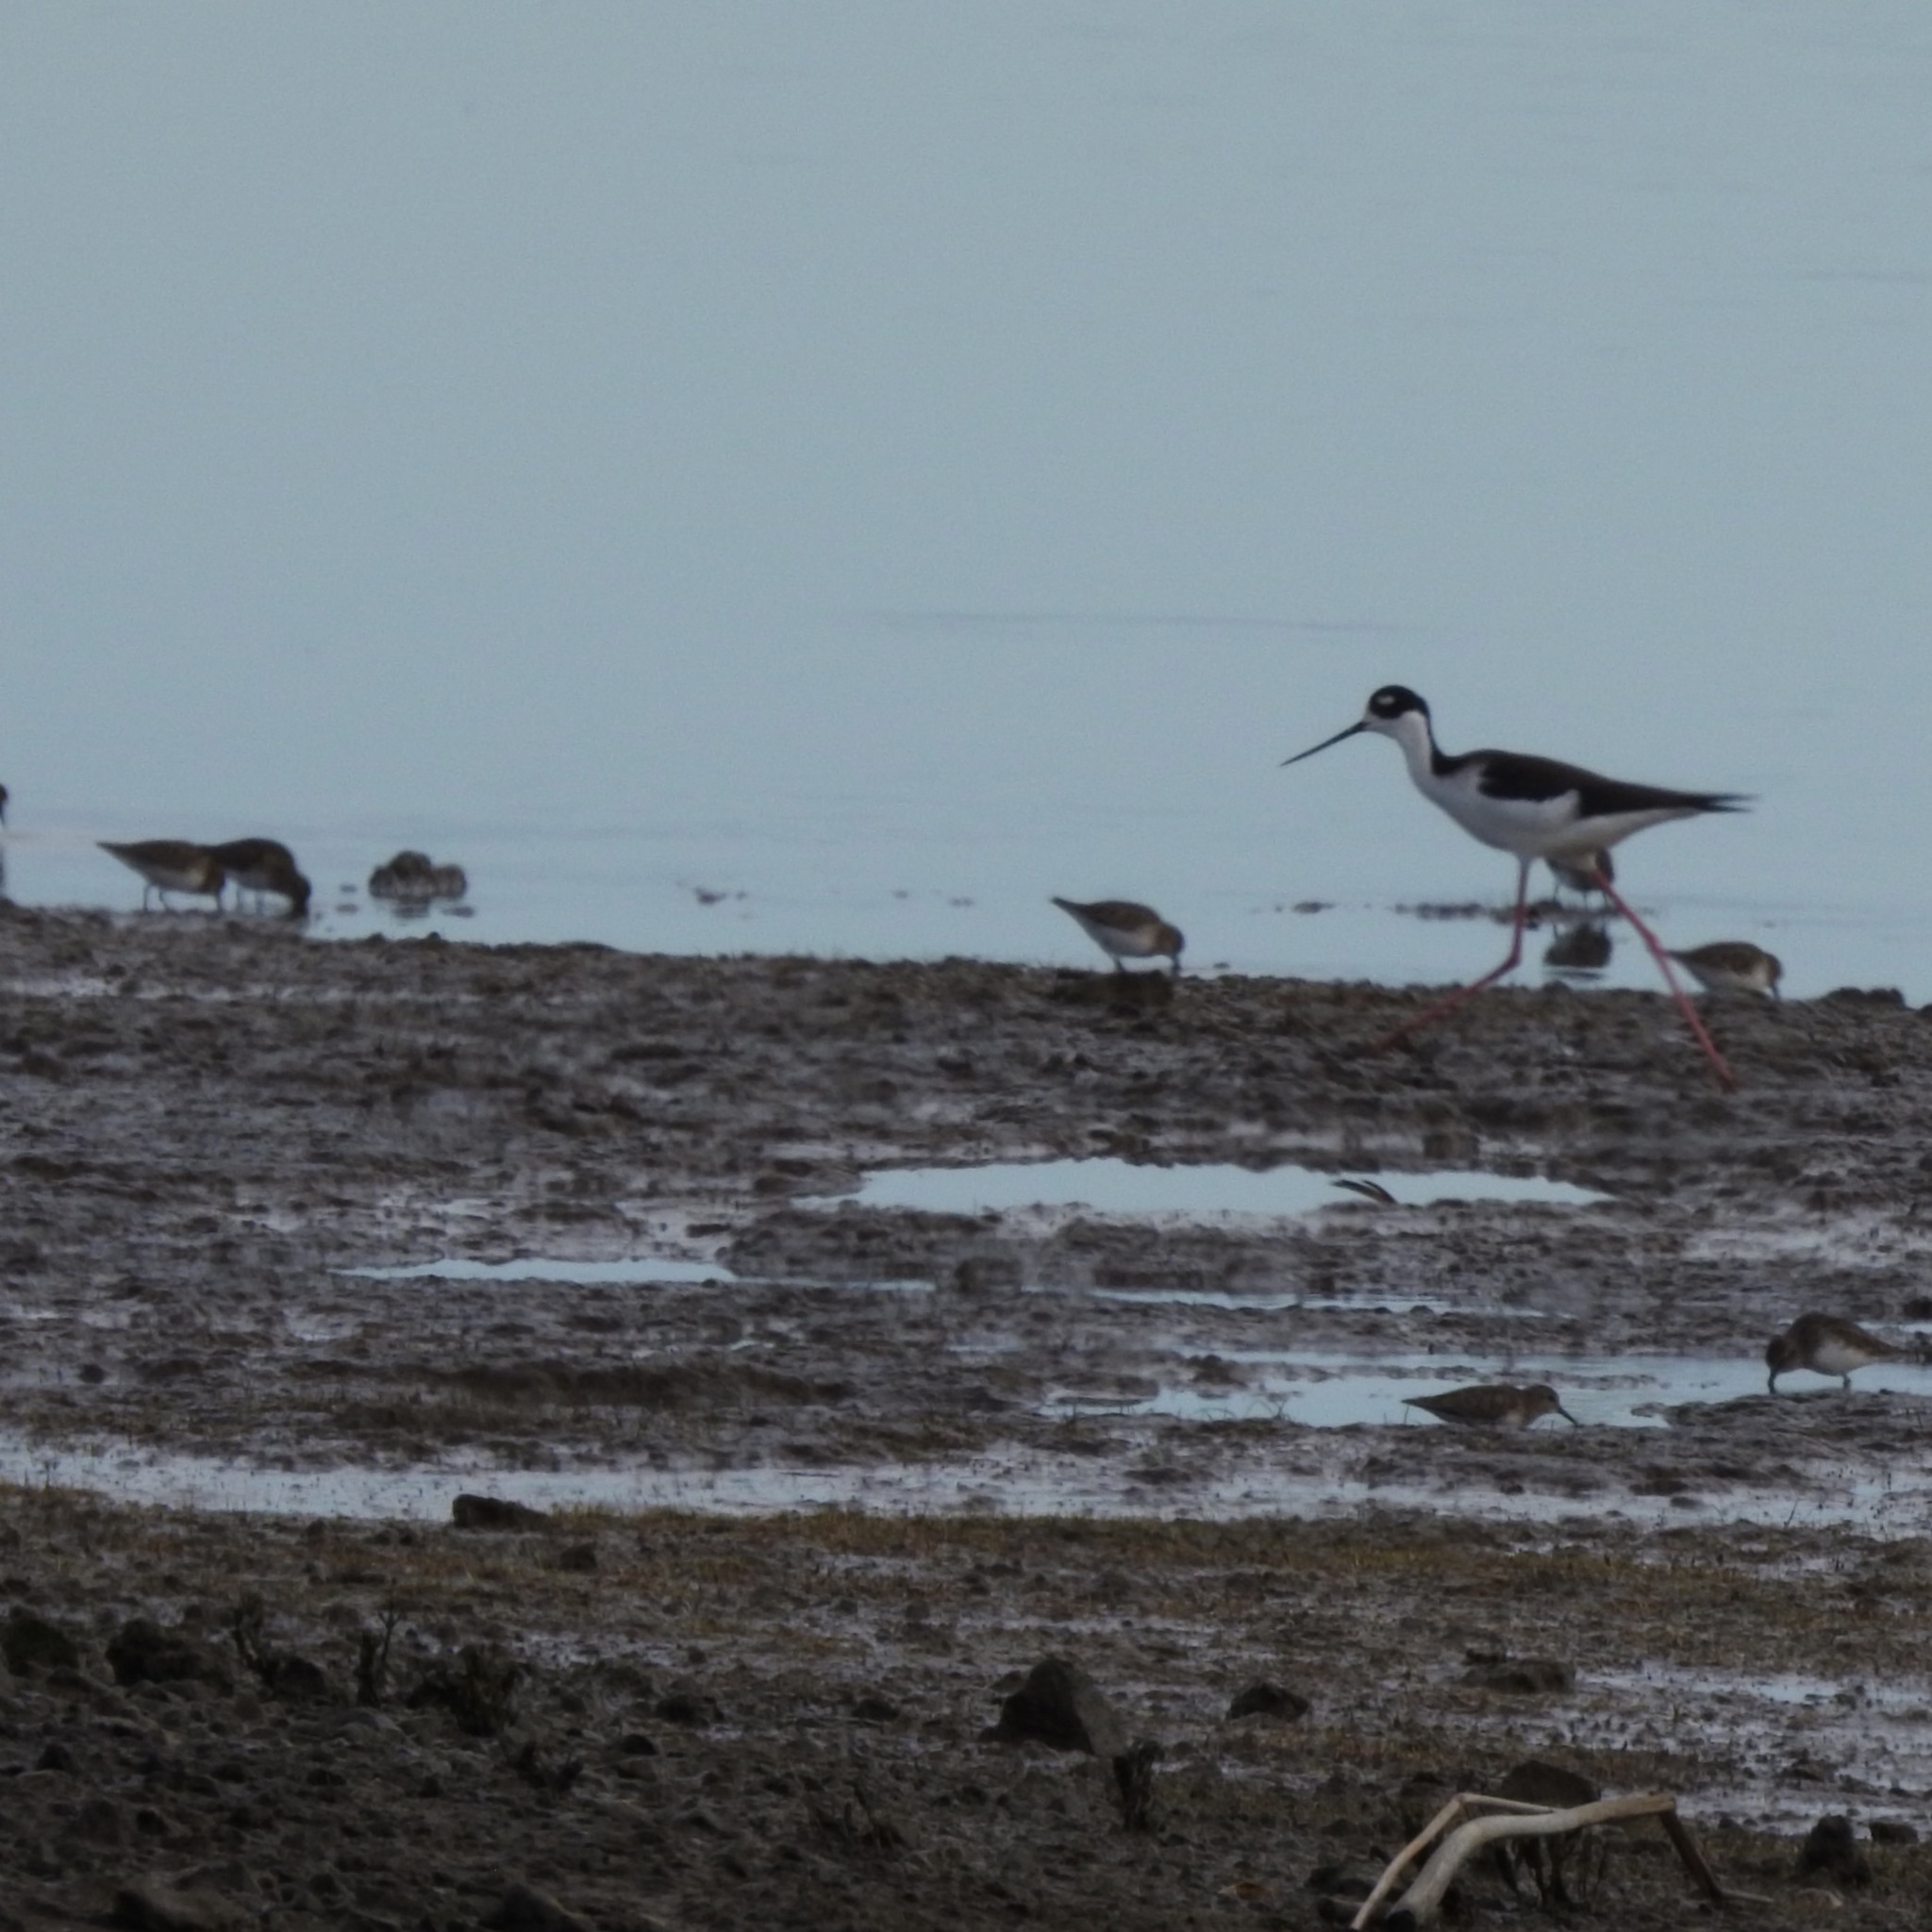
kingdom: Animalia
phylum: Chordata
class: Aves
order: Charadriiformes
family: Recurvirostridae
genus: Himantopus
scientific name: Himantopus mexicanus
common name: Black-necked stilt
